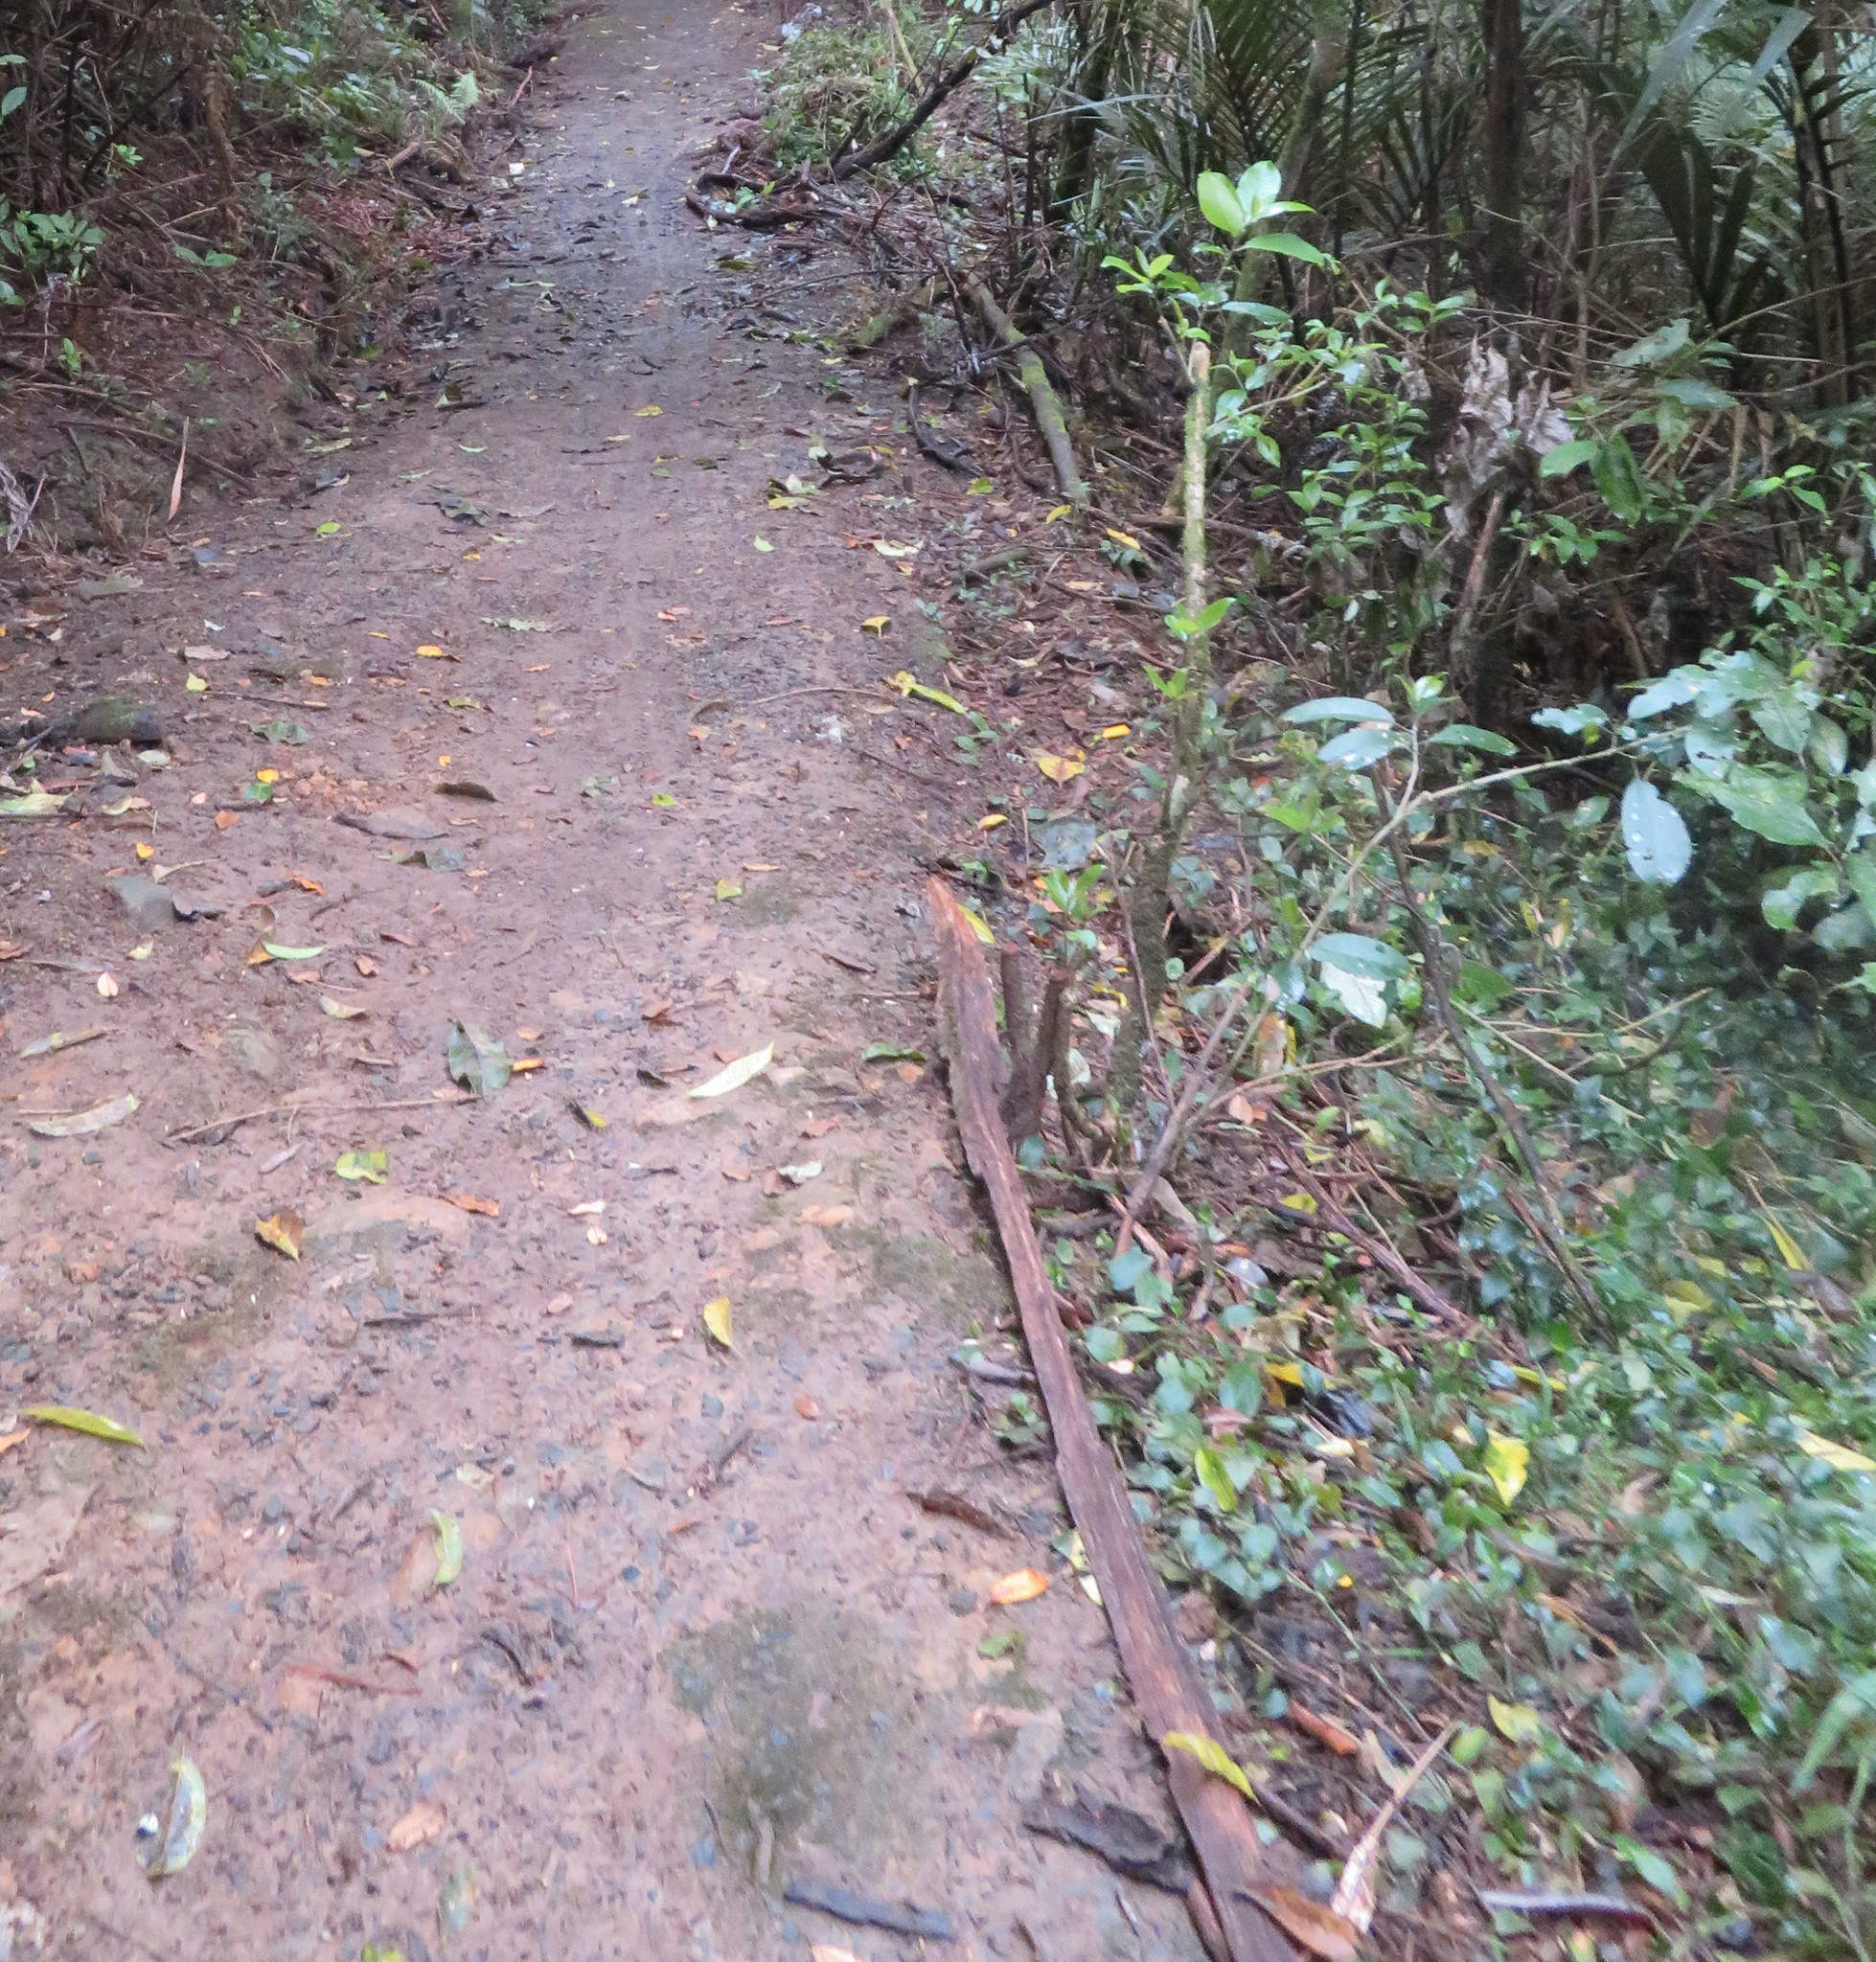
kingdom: Plantae
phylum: Tracheophyta
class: Liliopsida
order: Commelinales
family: Commelinaceae
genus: Tradescantia
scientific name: Tradescantia fluminensis
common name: Wandering-jew
